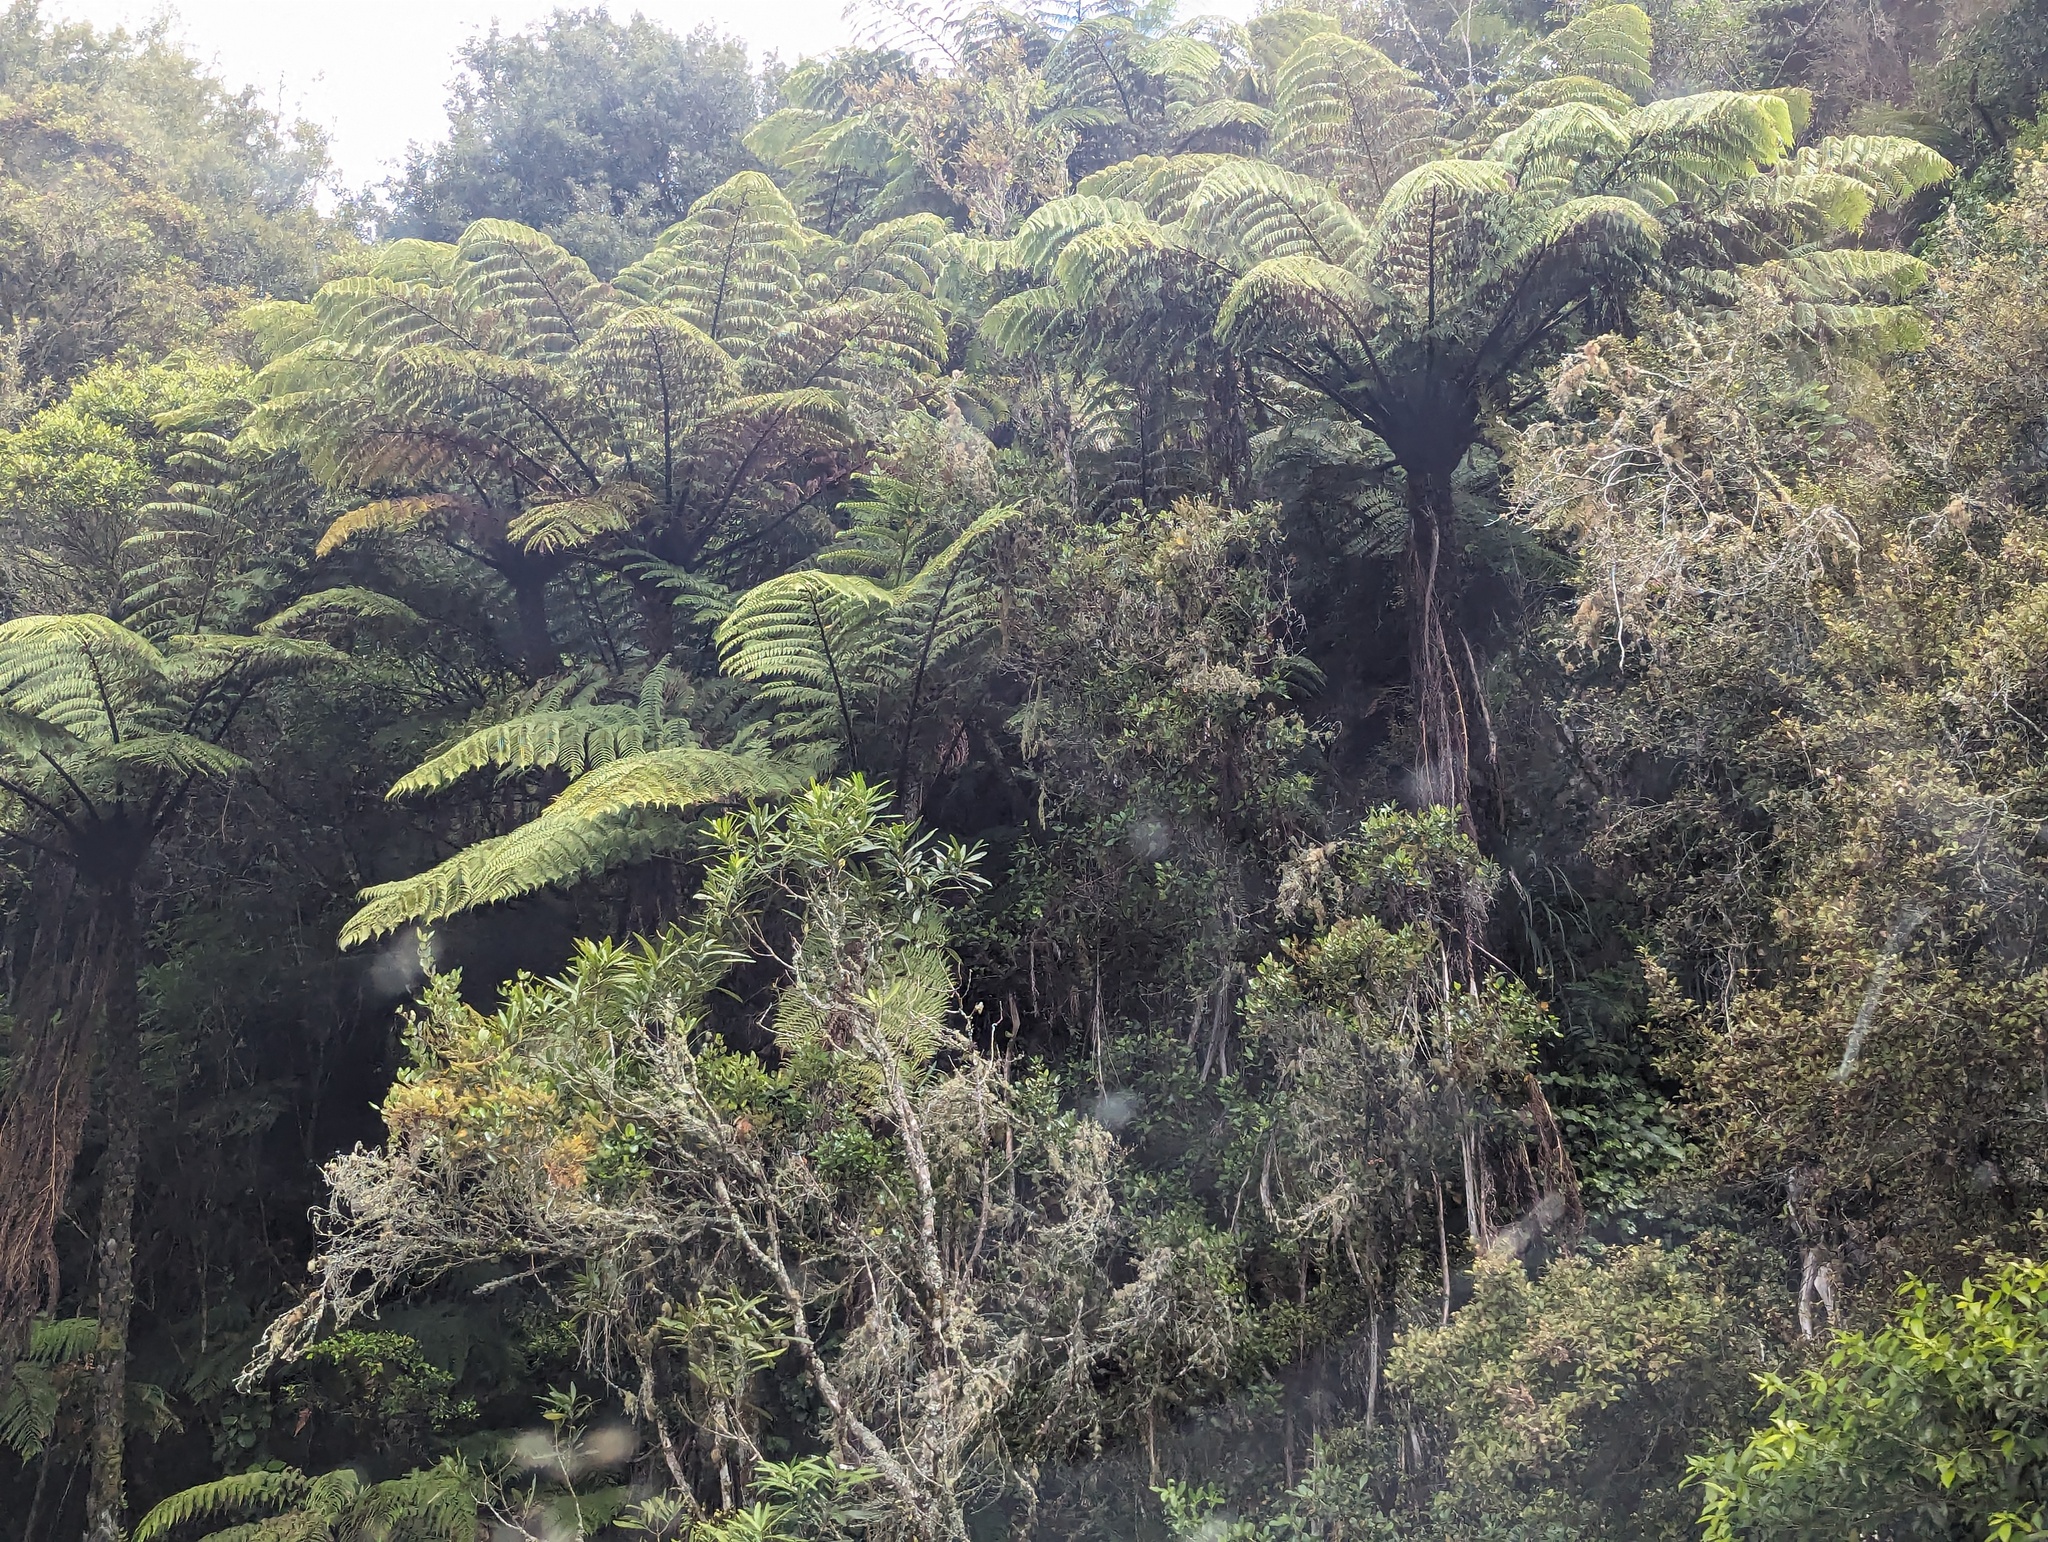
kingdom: Plantae
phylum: Tracheophyta
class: Polypodiopsida
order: Cyatheales
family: Cyatheaceae
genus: Sphaeropteris
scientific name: Sphaeropteris medullaris
